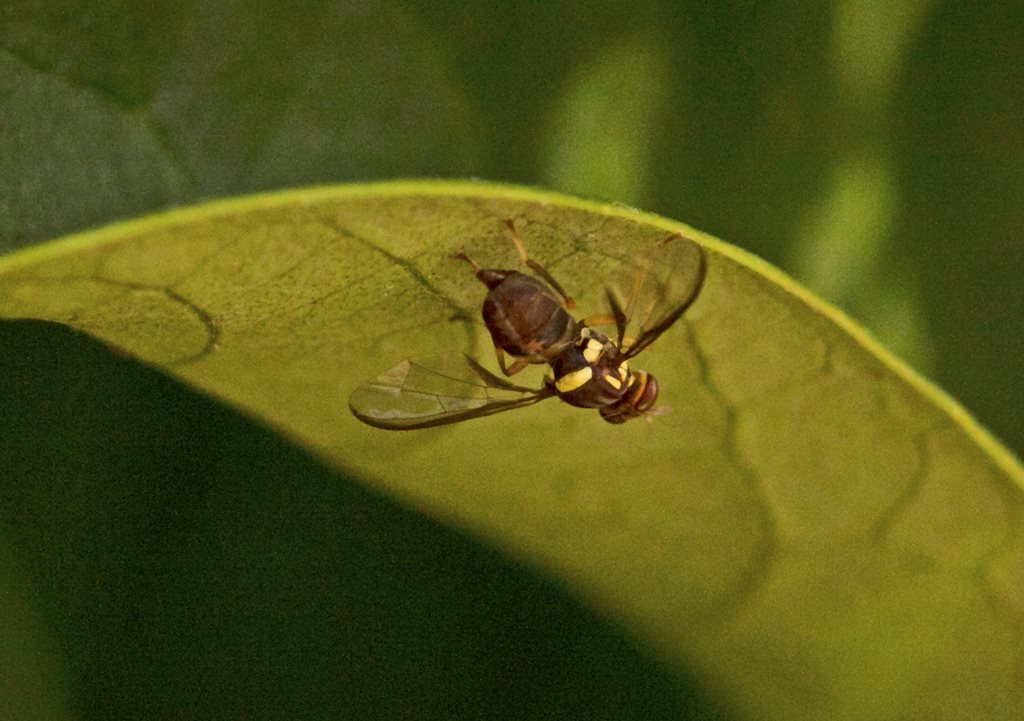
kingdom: Animalia
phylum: Arthropoda
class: Insecta
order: Diptera
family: Tephritidae
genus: Bactrocera
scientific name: Bactrocera tryoni
